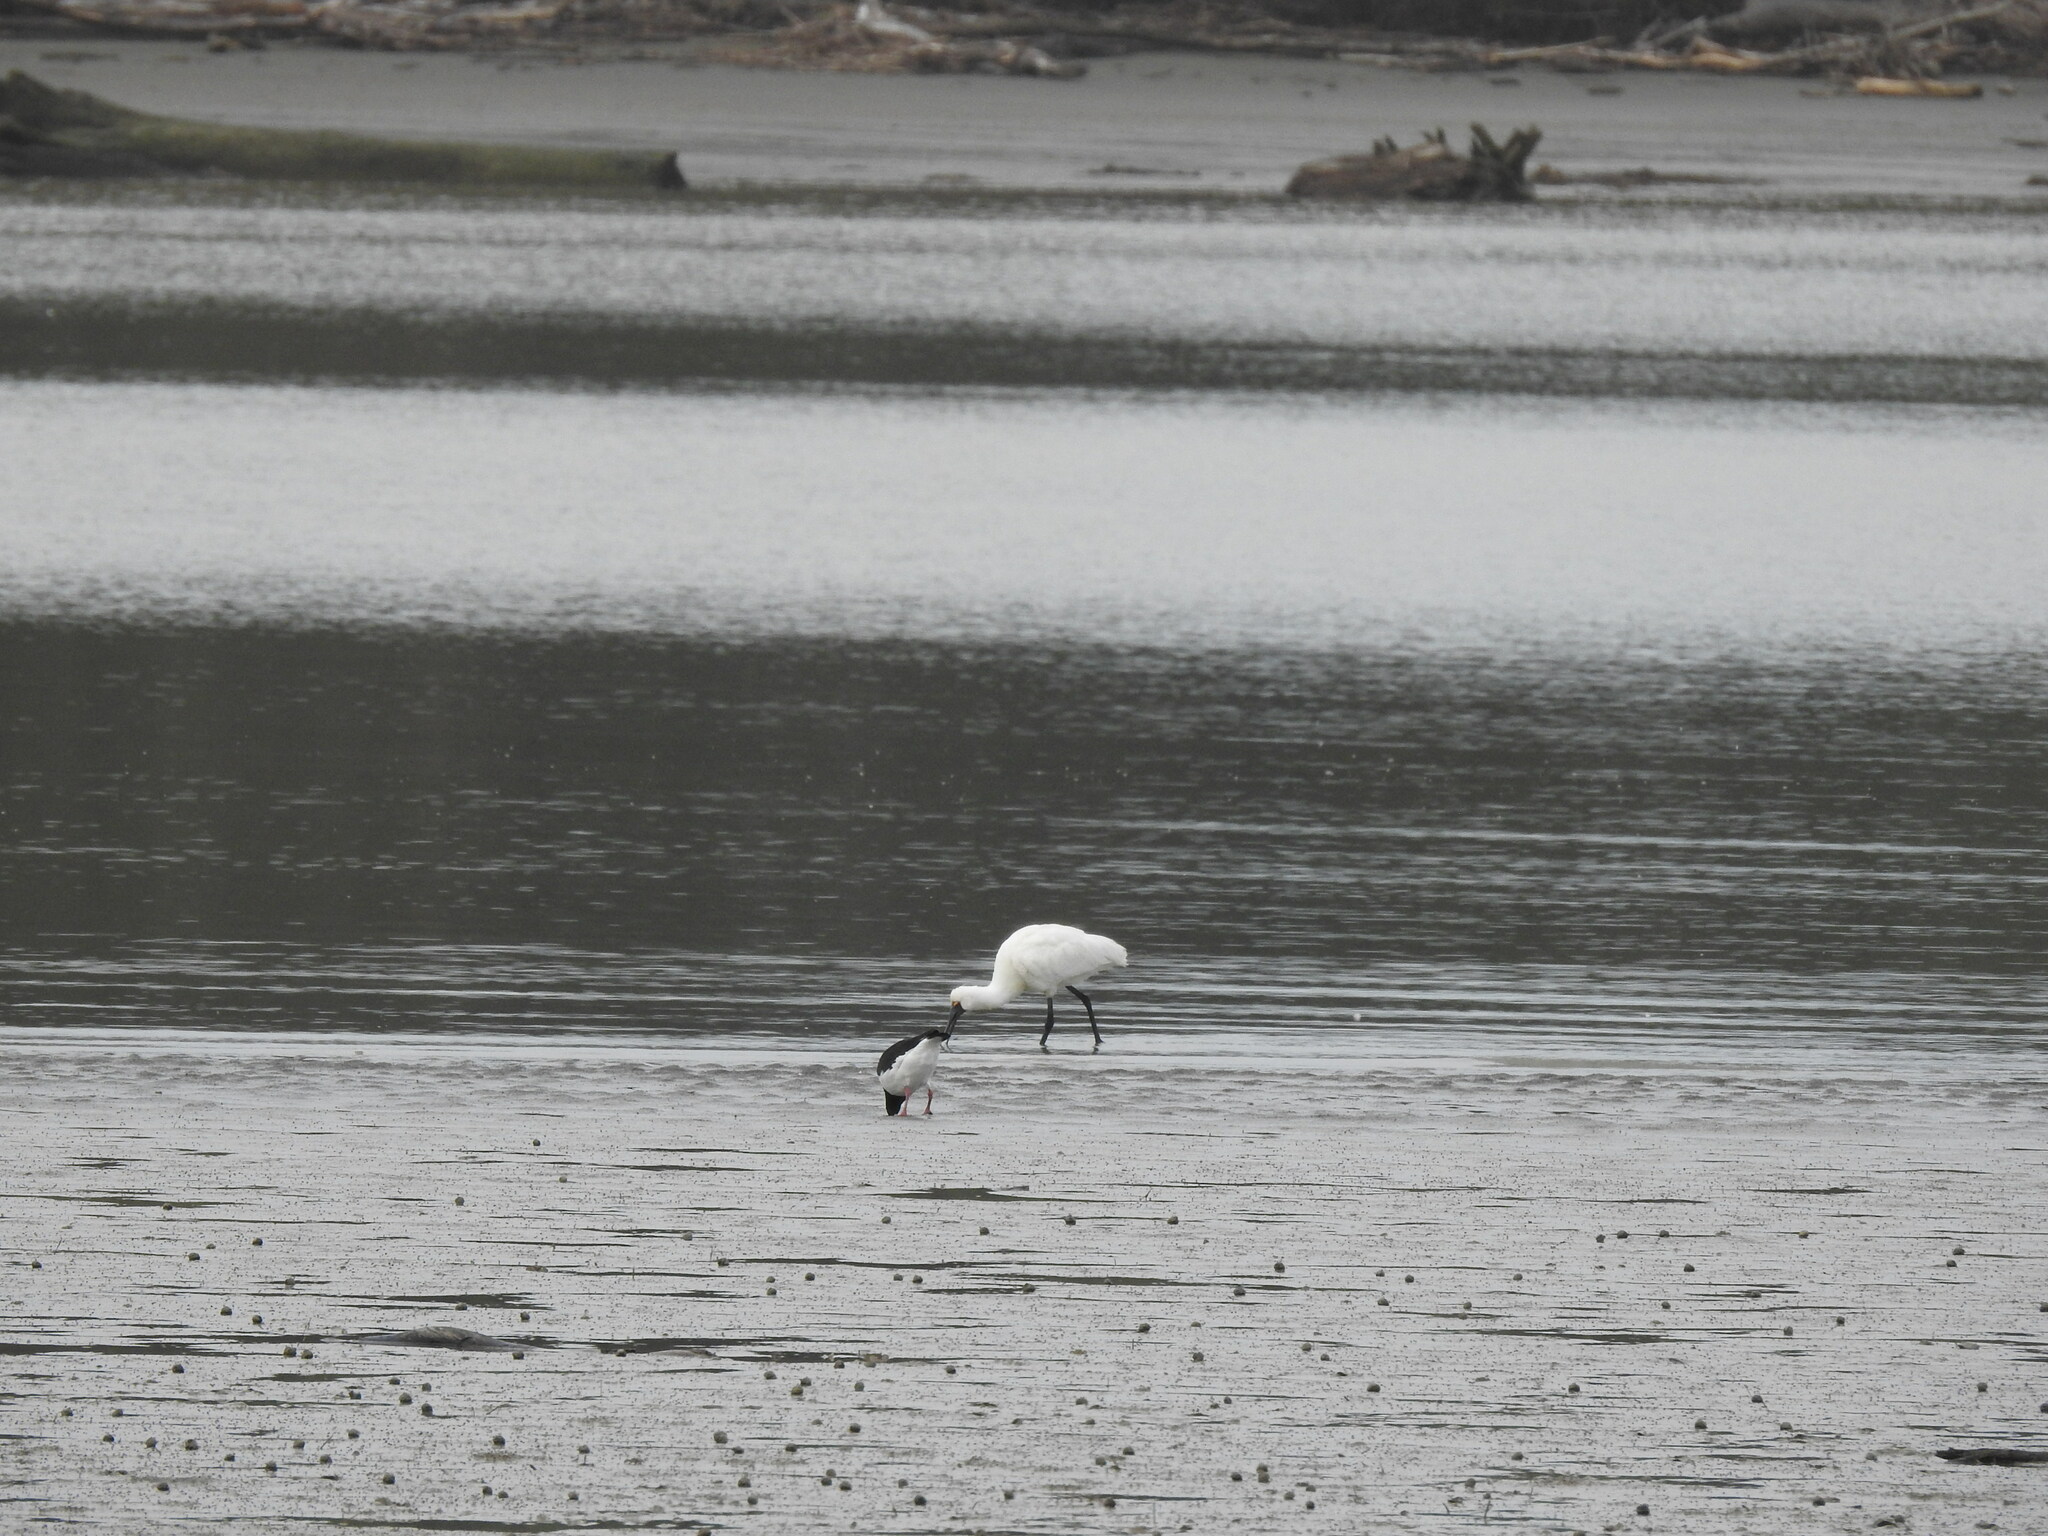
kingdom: Animalia
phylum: Chordata
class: Aves
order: Pelecaniformes
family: Threskiornithidae
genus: Platalea
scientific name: Platalea regia
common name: Royal spoonbill
